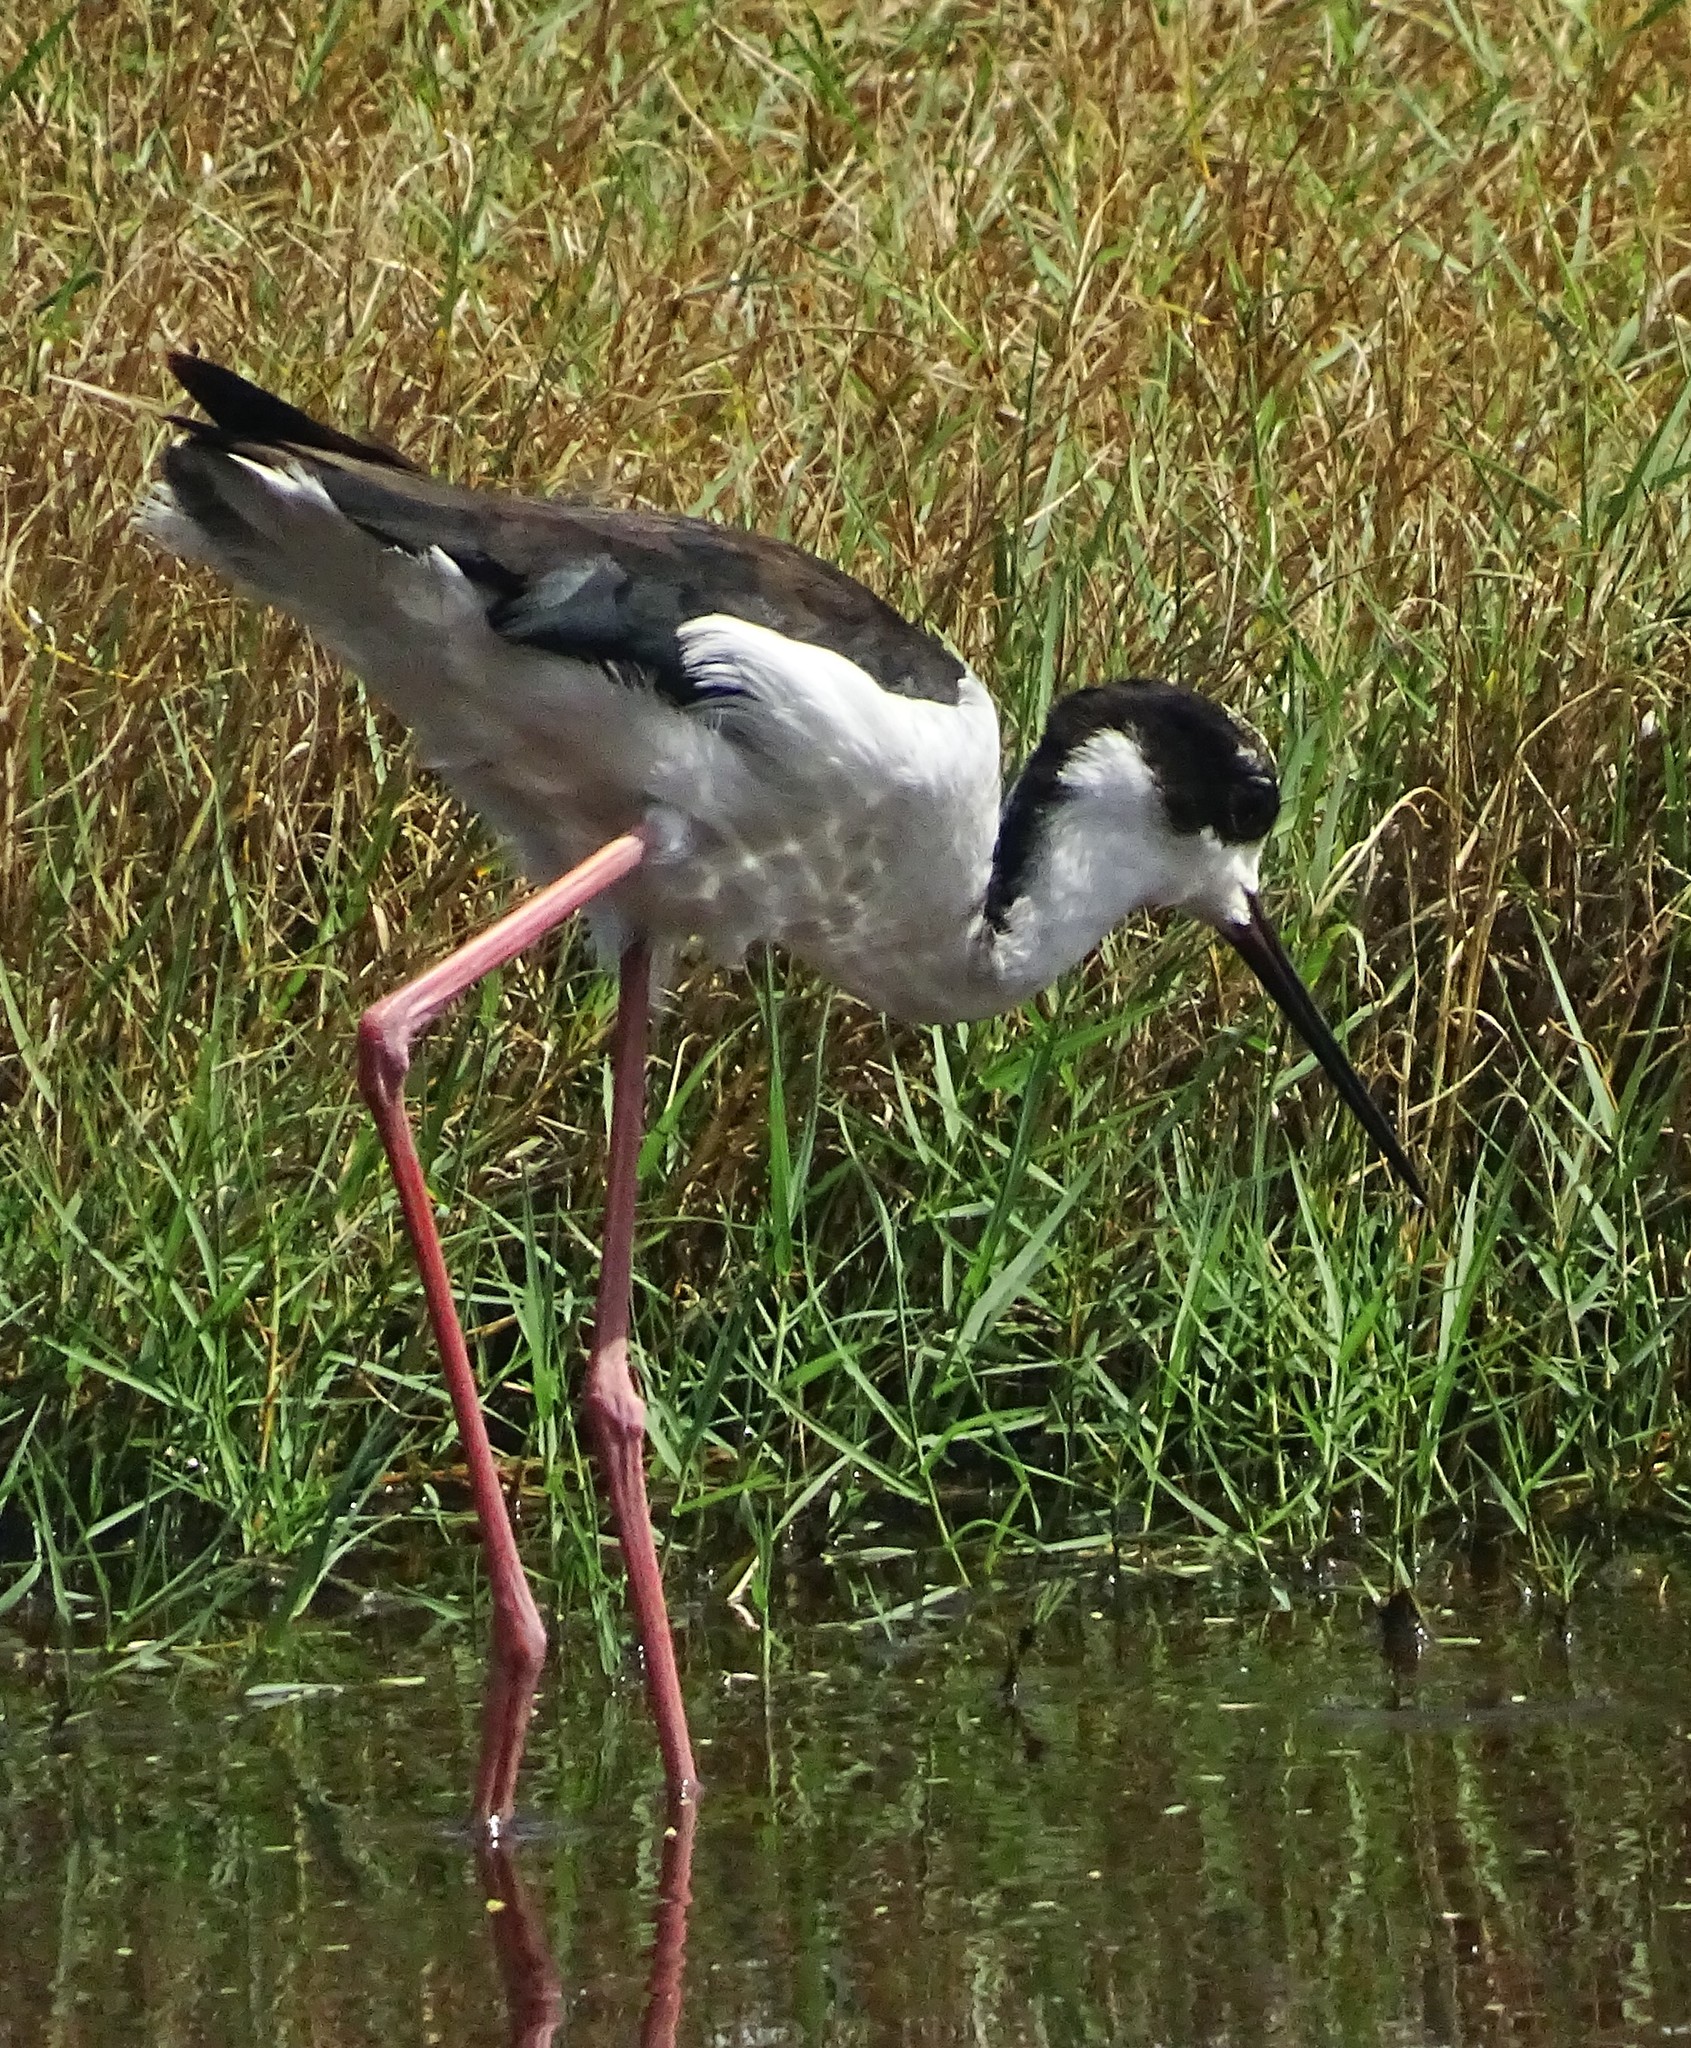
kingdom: Animalia
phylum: Chordata
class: Aves
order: Charadriiformes
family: Recurvirostridae
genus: Himantopus
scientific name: Himantopus mexicanus
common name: Black-necked stilt
